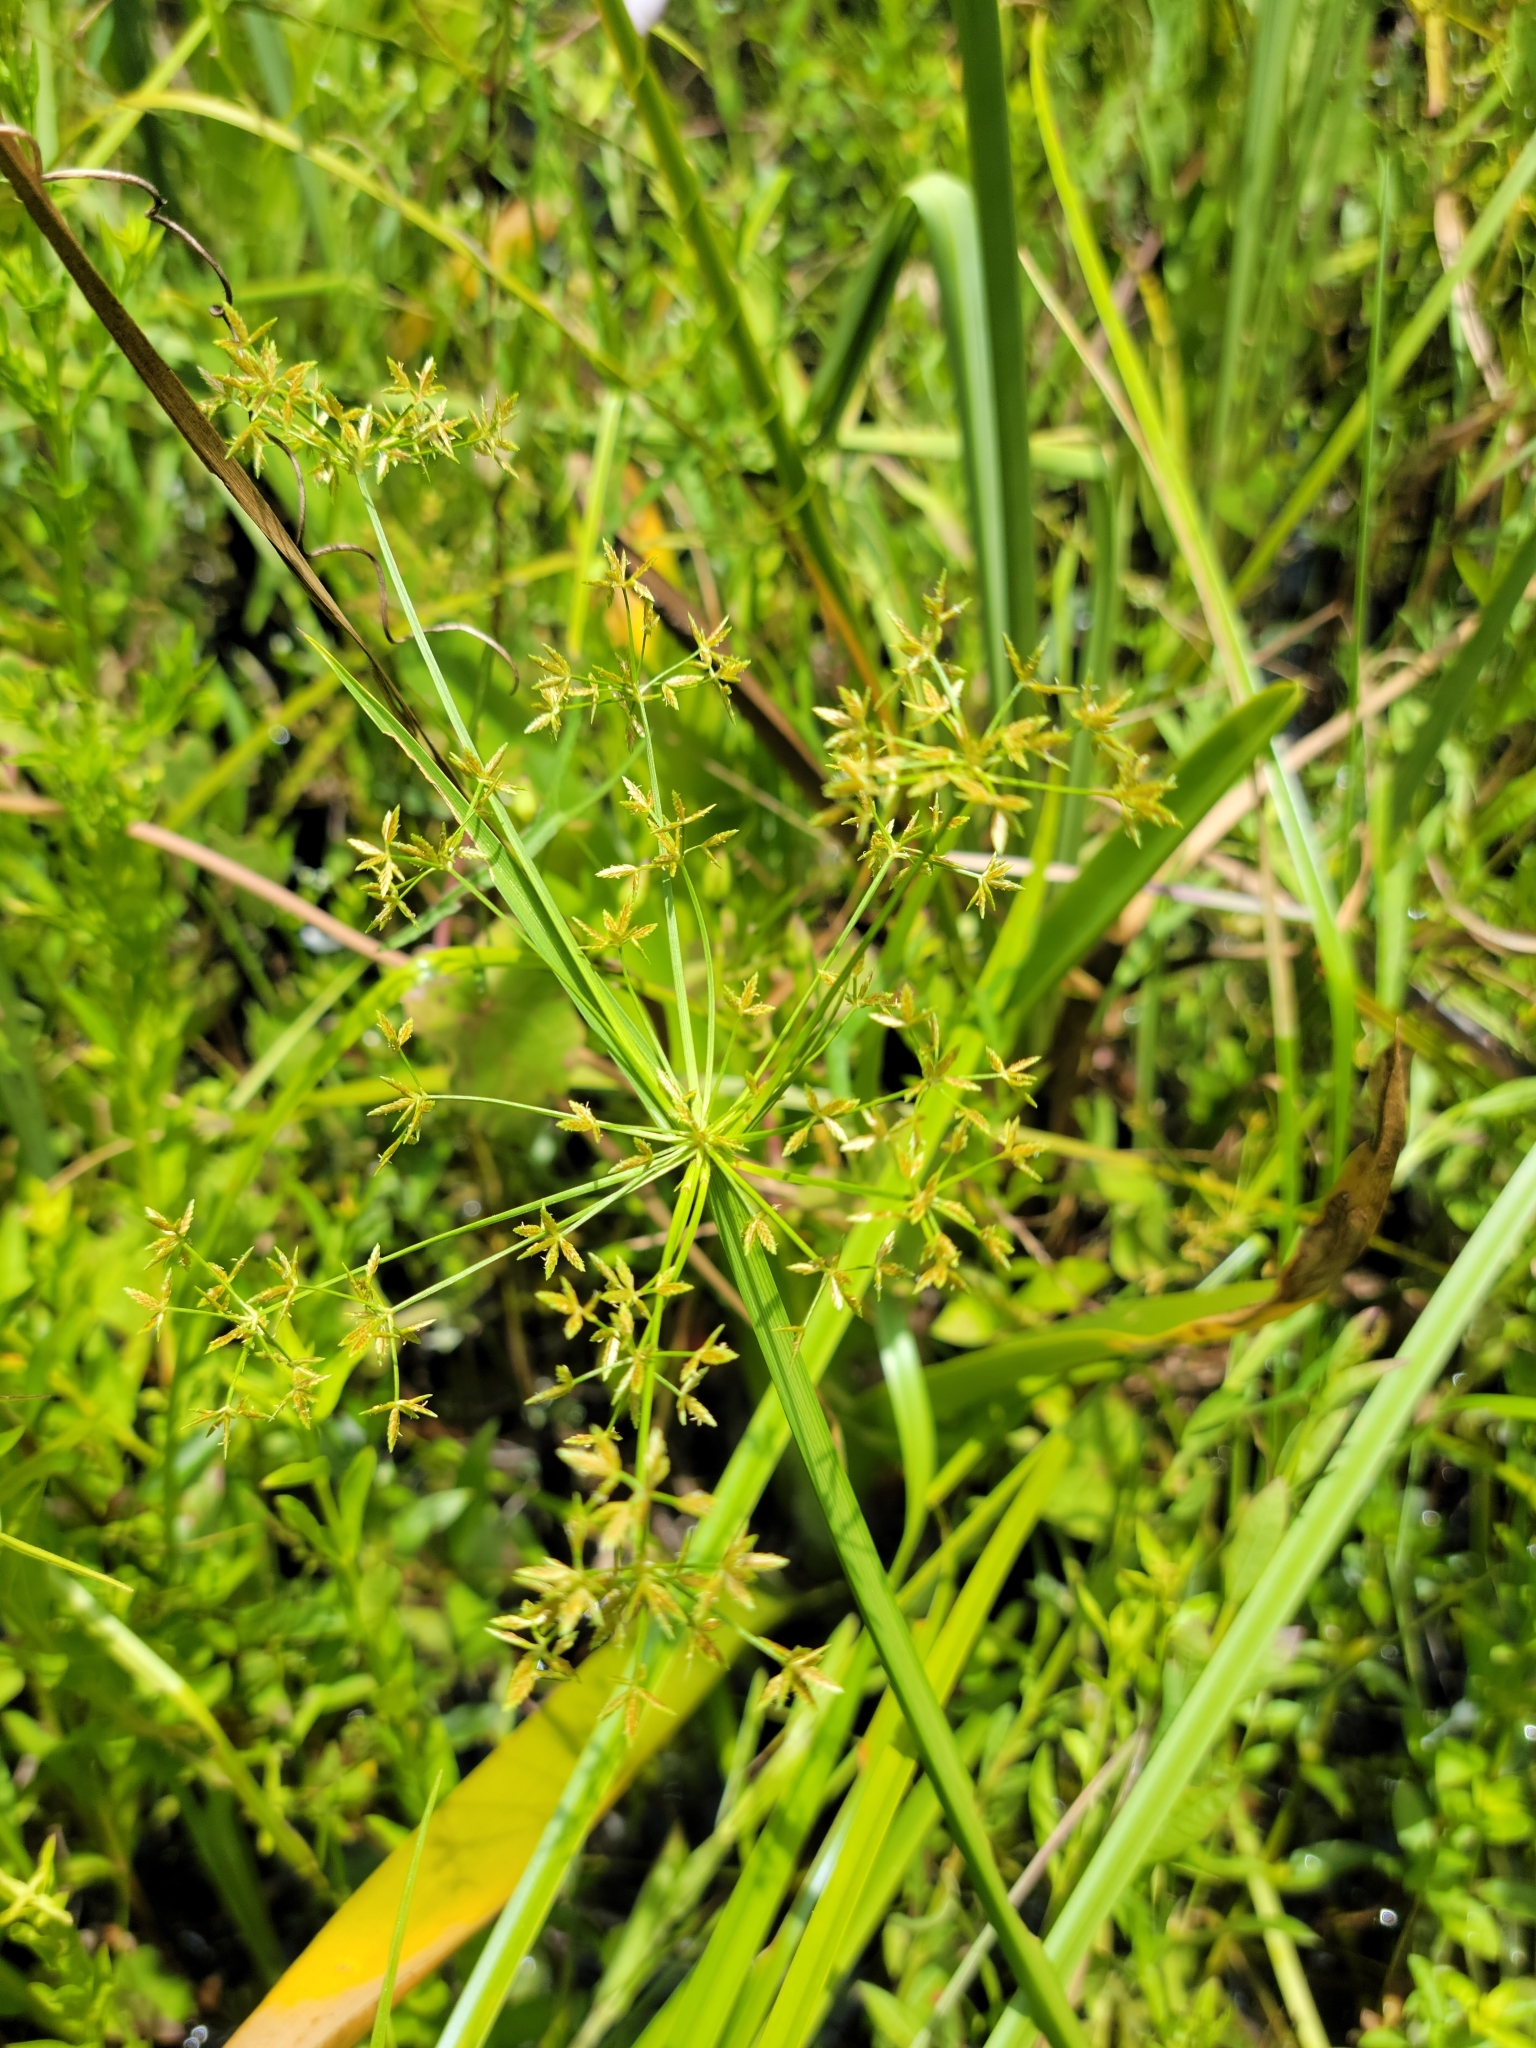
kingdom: Plantae
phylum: Tracheophyta
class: Liliopsida
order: Poales
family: Cyperaceae
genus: Cyperus
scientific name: Cyperus haspan
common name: Haspan flatsedge
